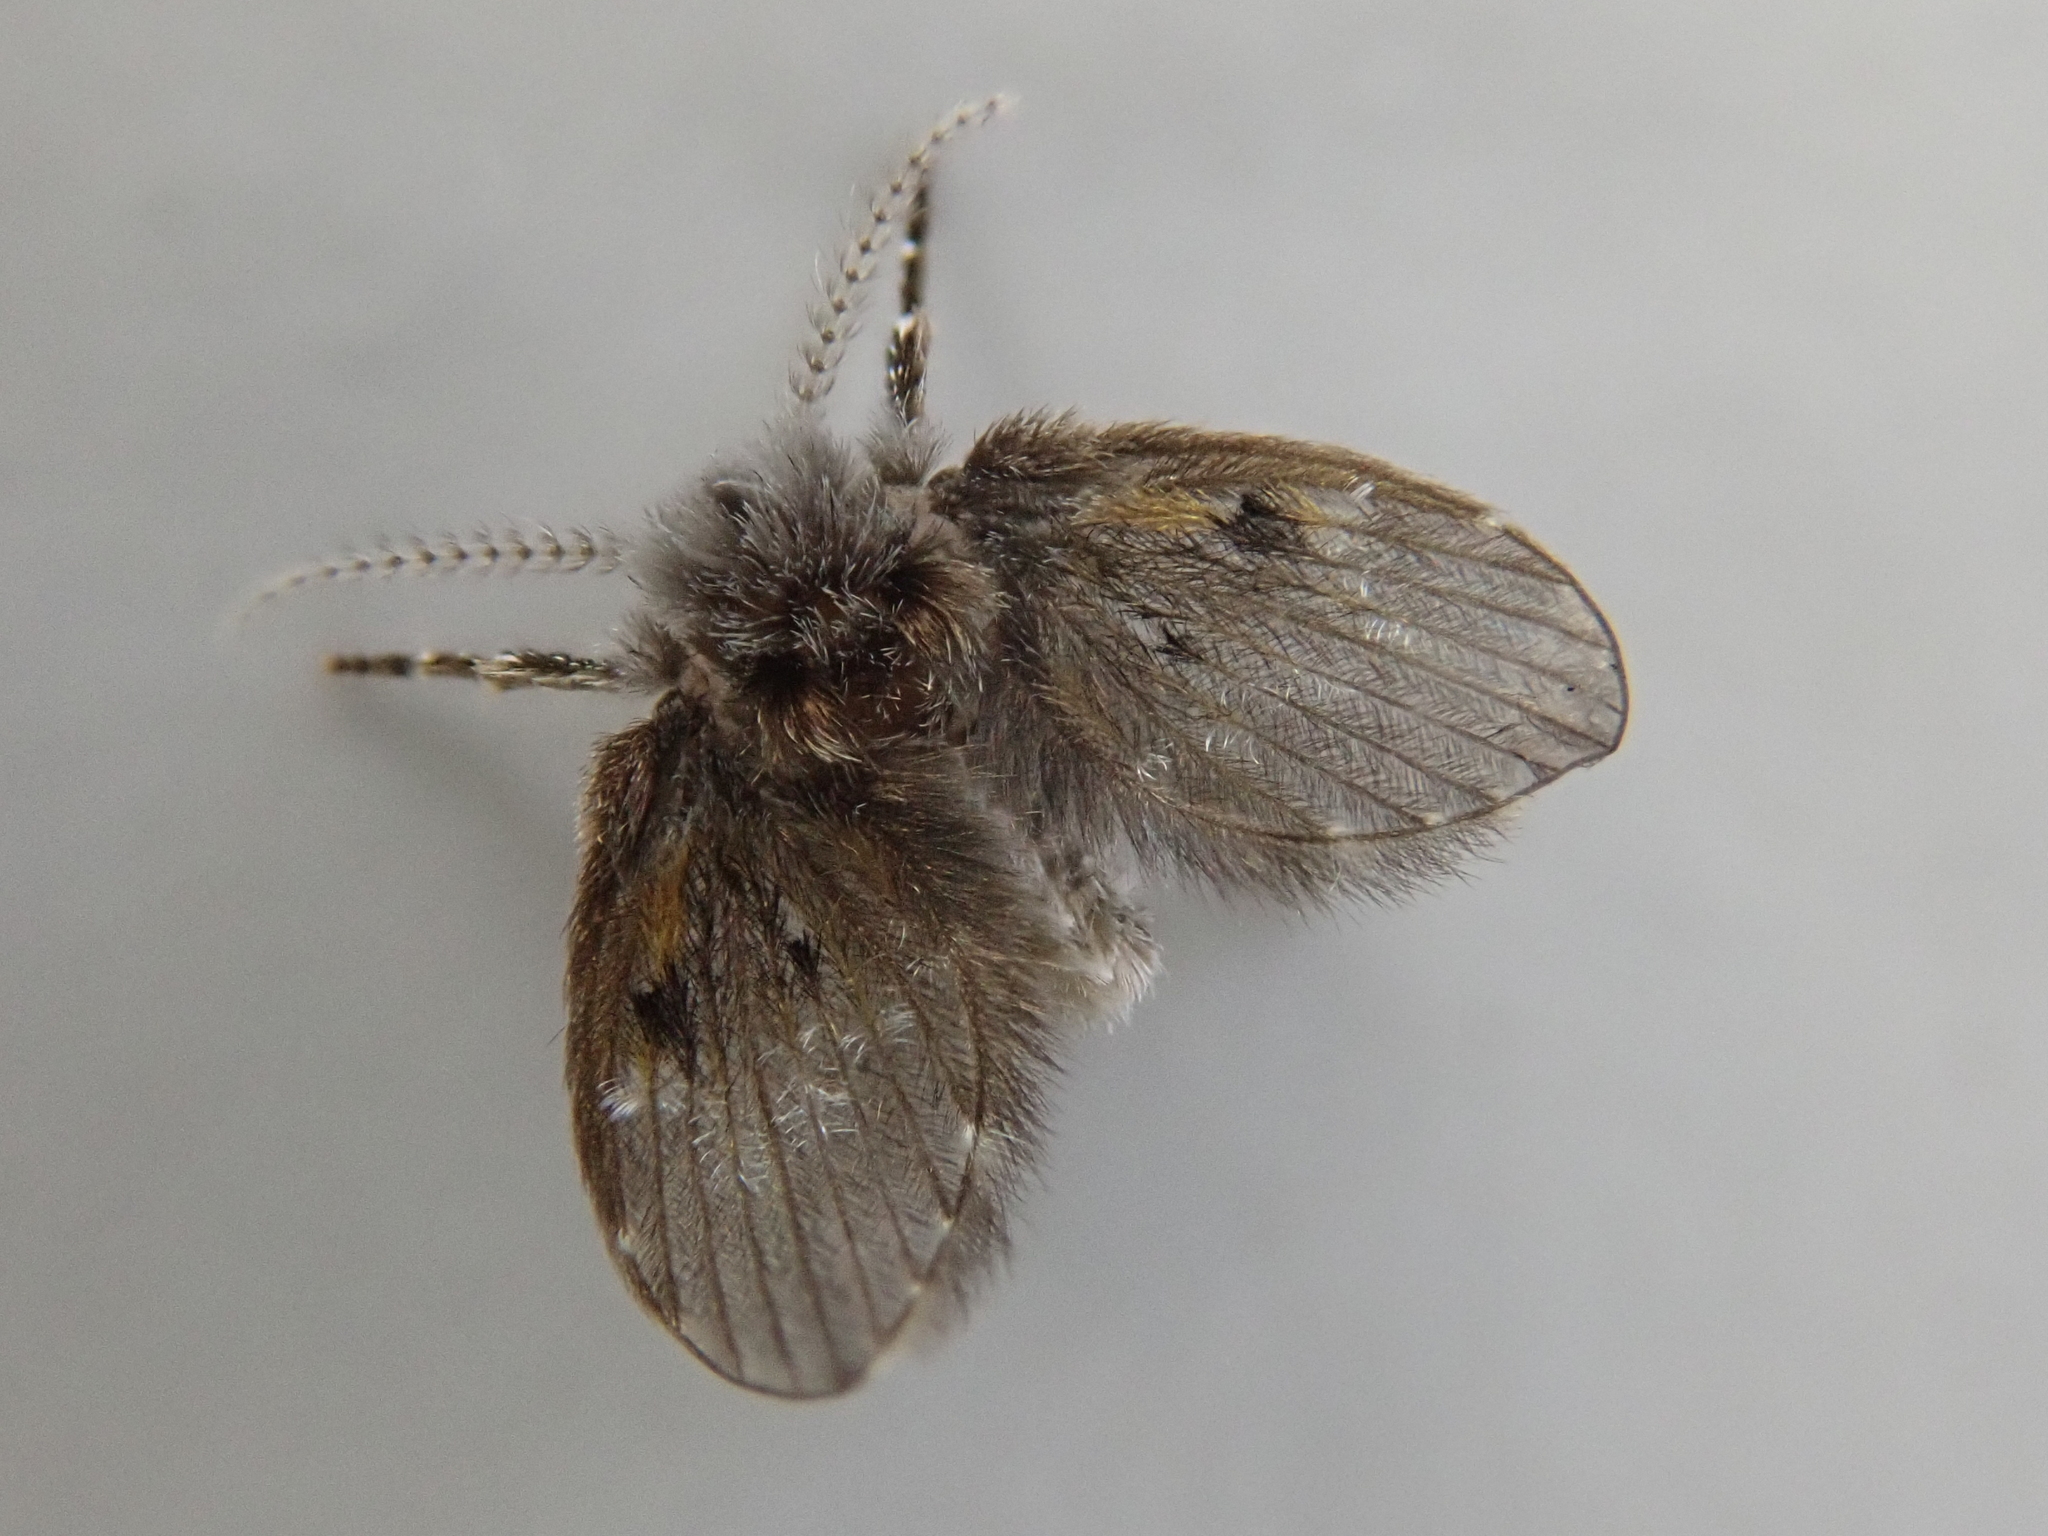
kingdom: Animalia
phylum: Arthropoda
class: Insecta
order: Diptera
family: Psychodidae
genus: Clogmia
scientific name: Clogmia albipunctatus
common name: White-spotted moth fly
